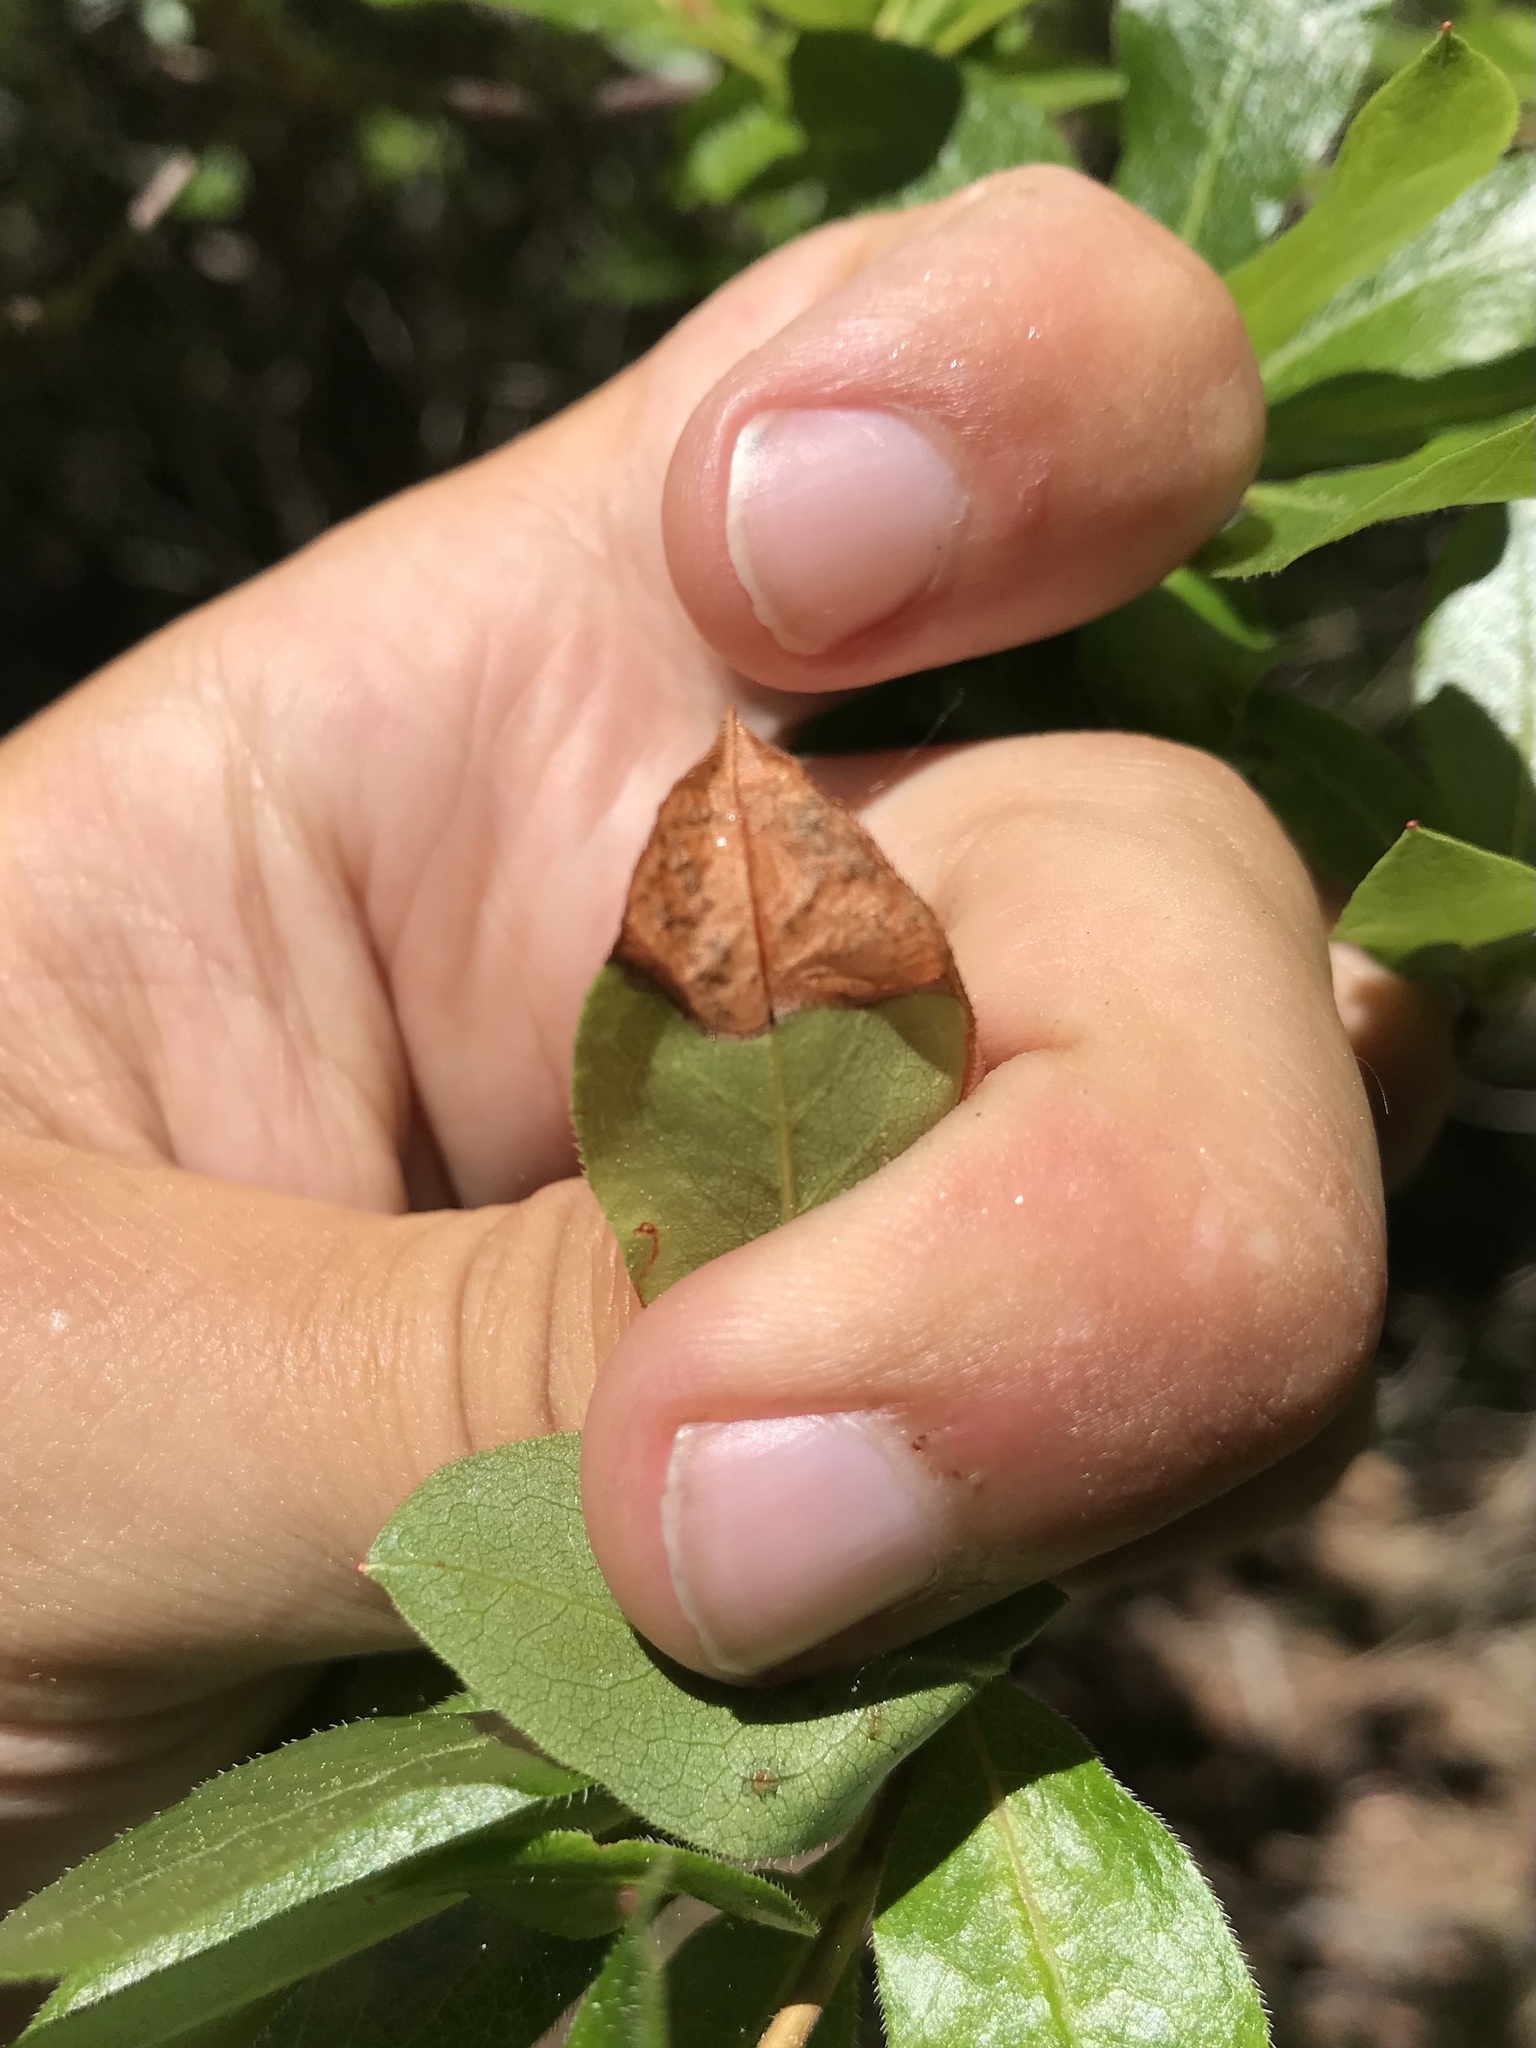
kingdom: Animalia
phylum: Arthropoda
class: Insecta
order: Lepidoptera
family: Lyonetiidae
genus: Lyonetia
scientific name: Lyonetia ledi
